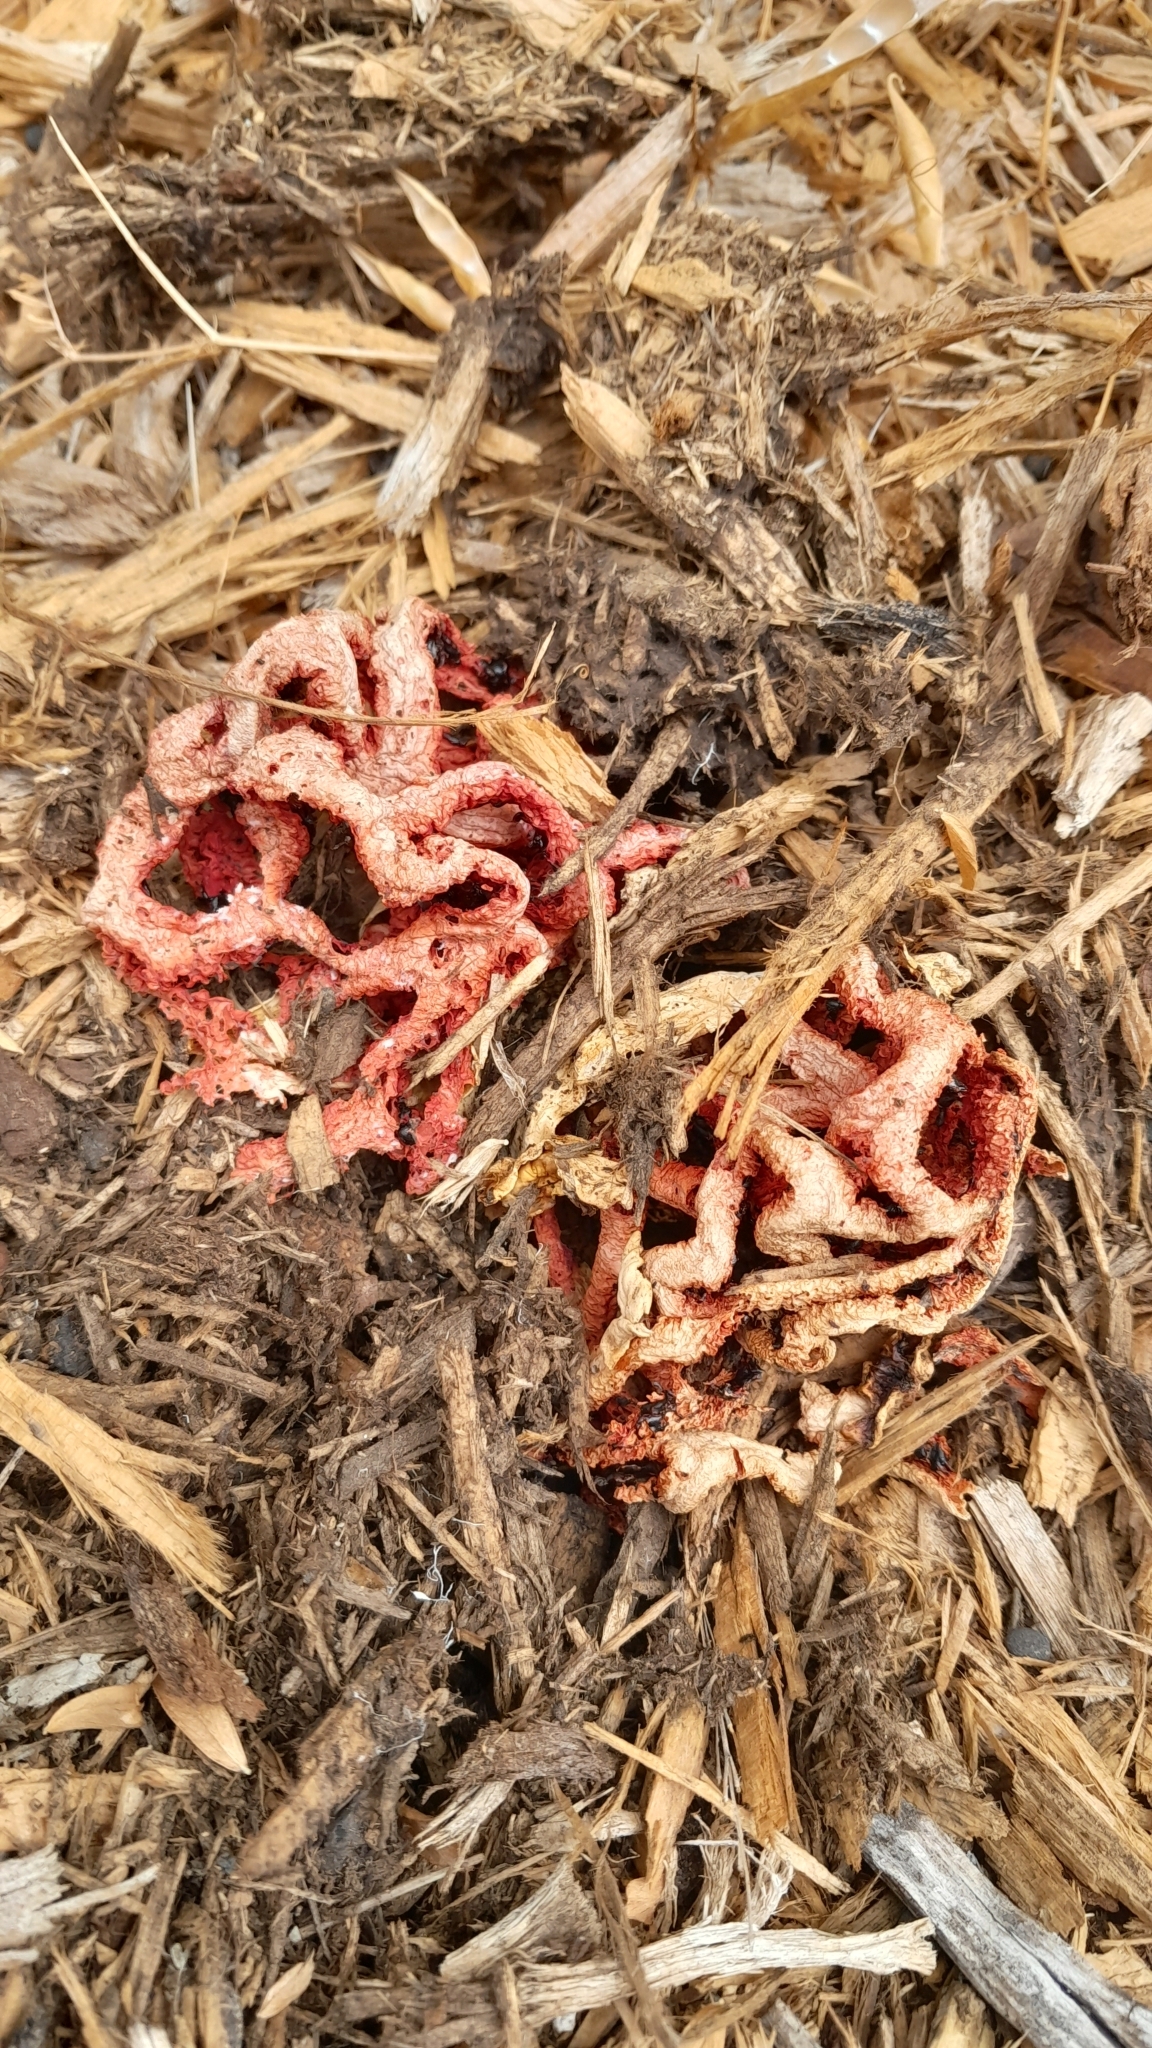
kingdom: Fungi
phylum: Basidiomycota
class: Agaricomycetes
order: Phallales
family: Phallaceae
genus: Clathrus
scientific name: Clathrus ruber
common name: Red cage
